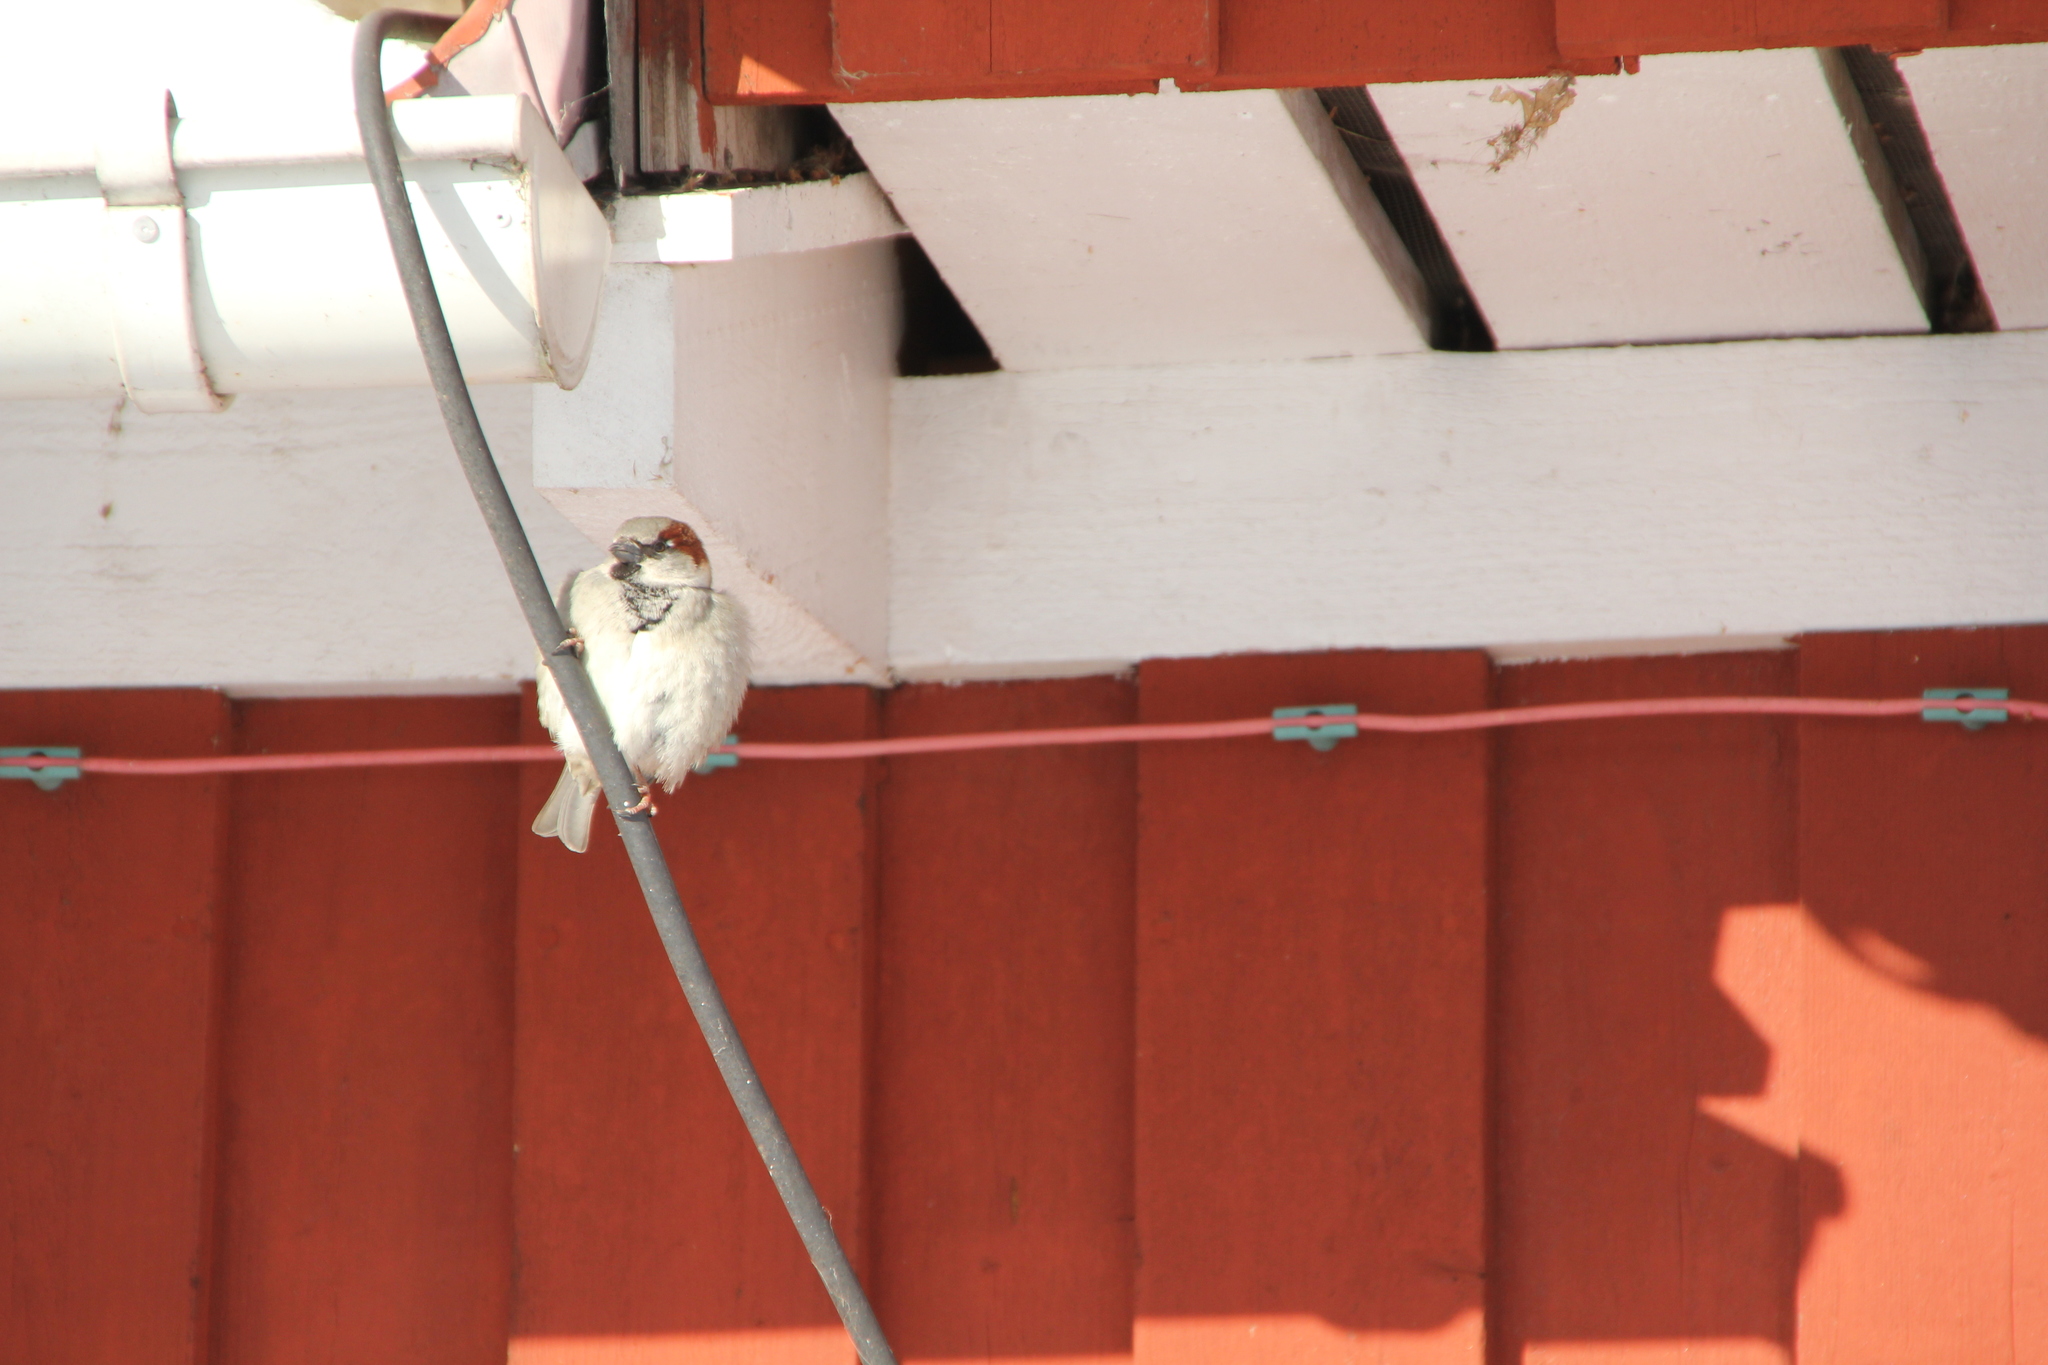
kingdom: Animalia
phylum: Chordata
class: Aves
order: Passeriformes
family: Passeridae
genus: Passer
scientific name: Passer domesticus
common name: House sparrow
